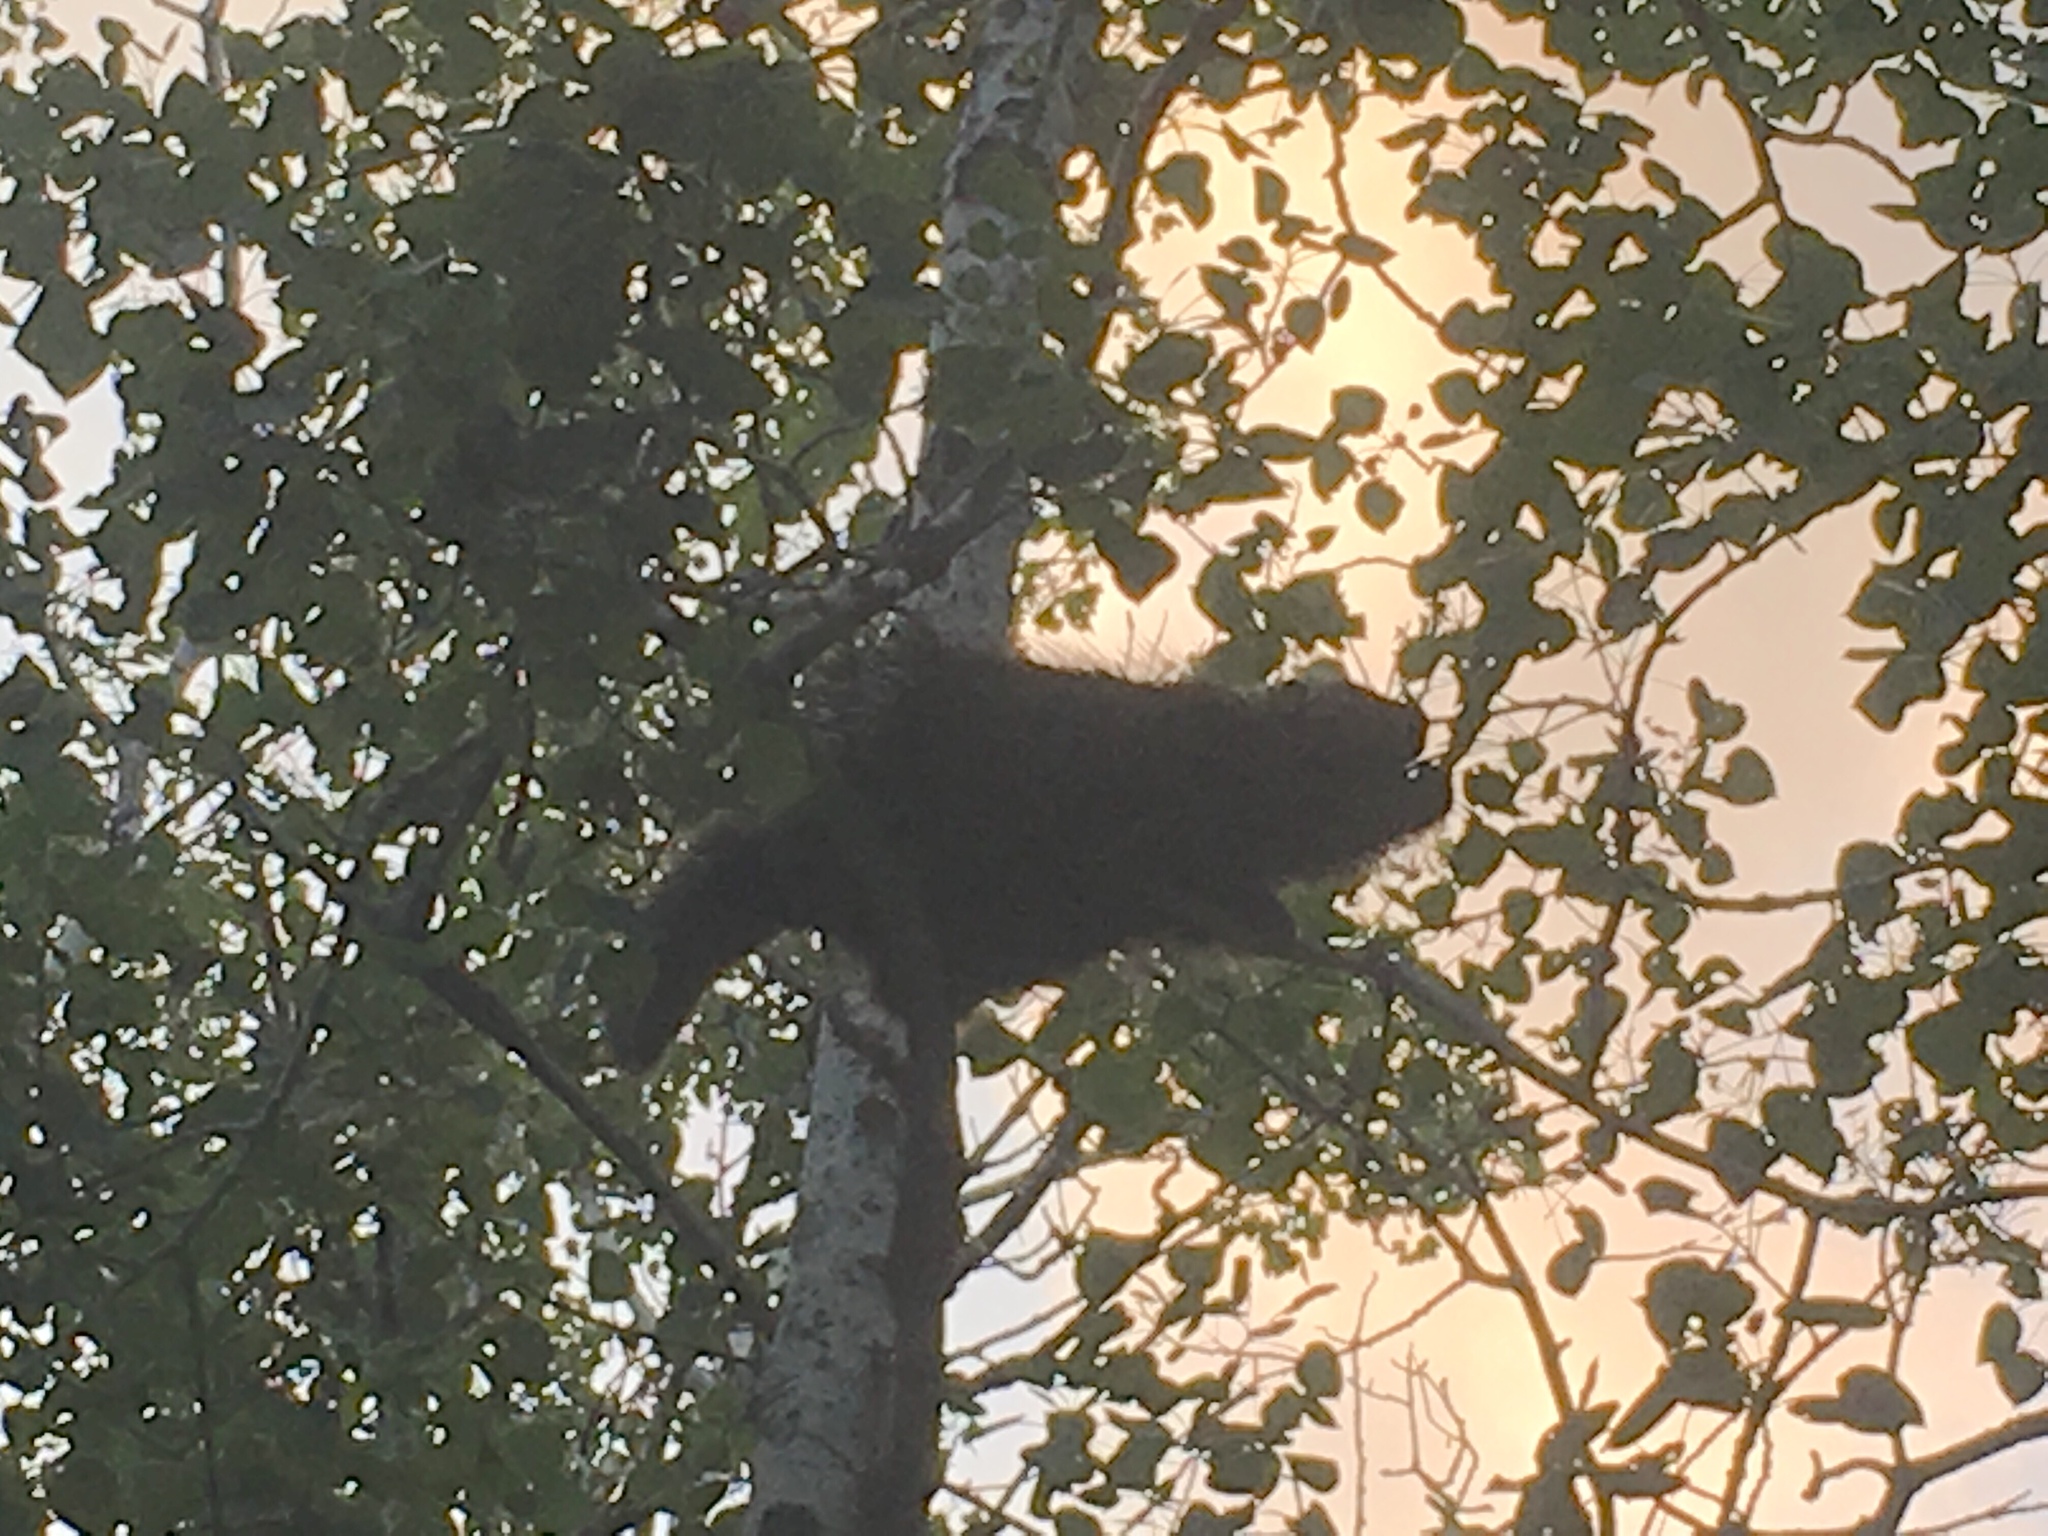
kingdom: Animalia
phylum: Chordata
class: Mammalia
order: Rodentia
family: Erethizontidae
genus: Erethizon
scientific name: Erethizon dorsatus
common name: North american porcupine
